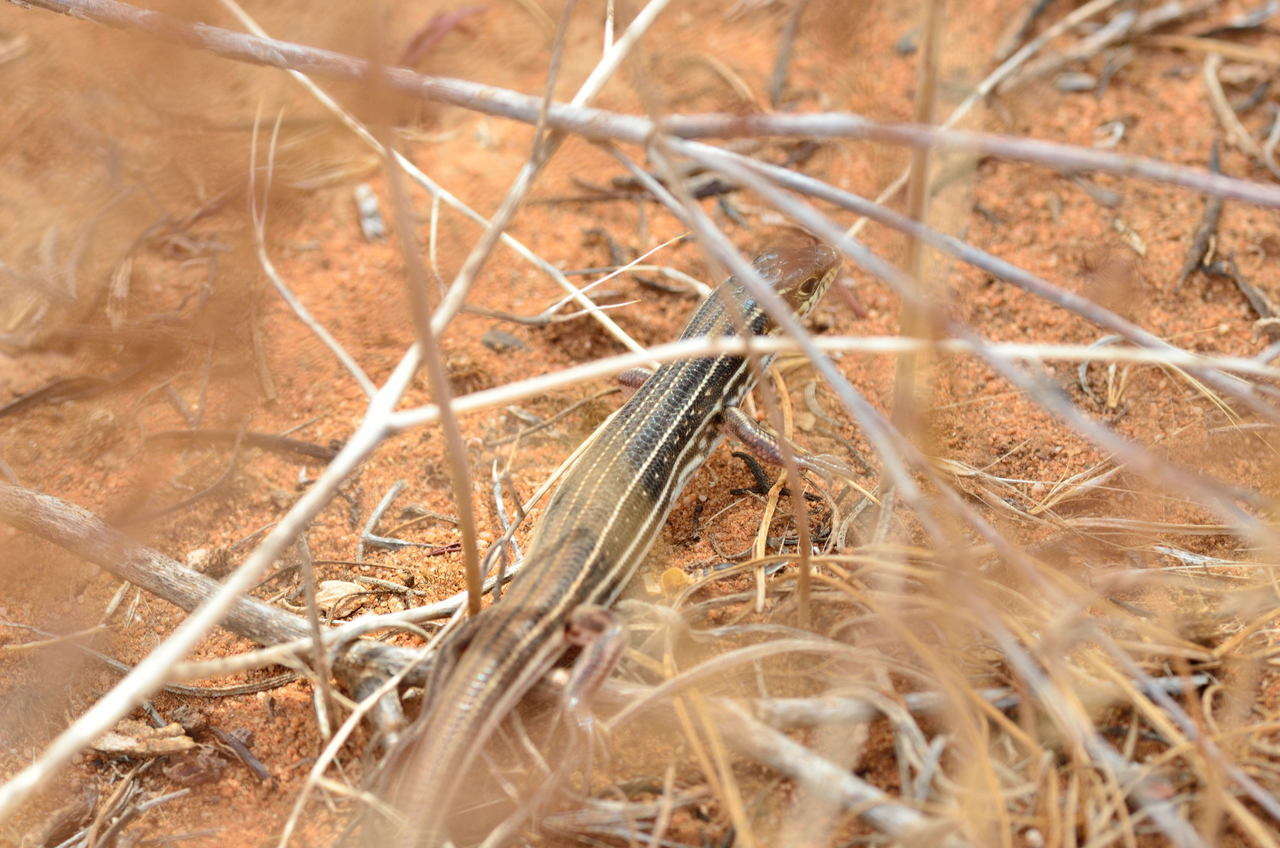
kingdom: Animalia
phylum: Chordata
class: Squamata
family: Scincidae
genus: Ctenotus
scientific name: Ctenotus regius
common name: Pale-rumped ctenotus
